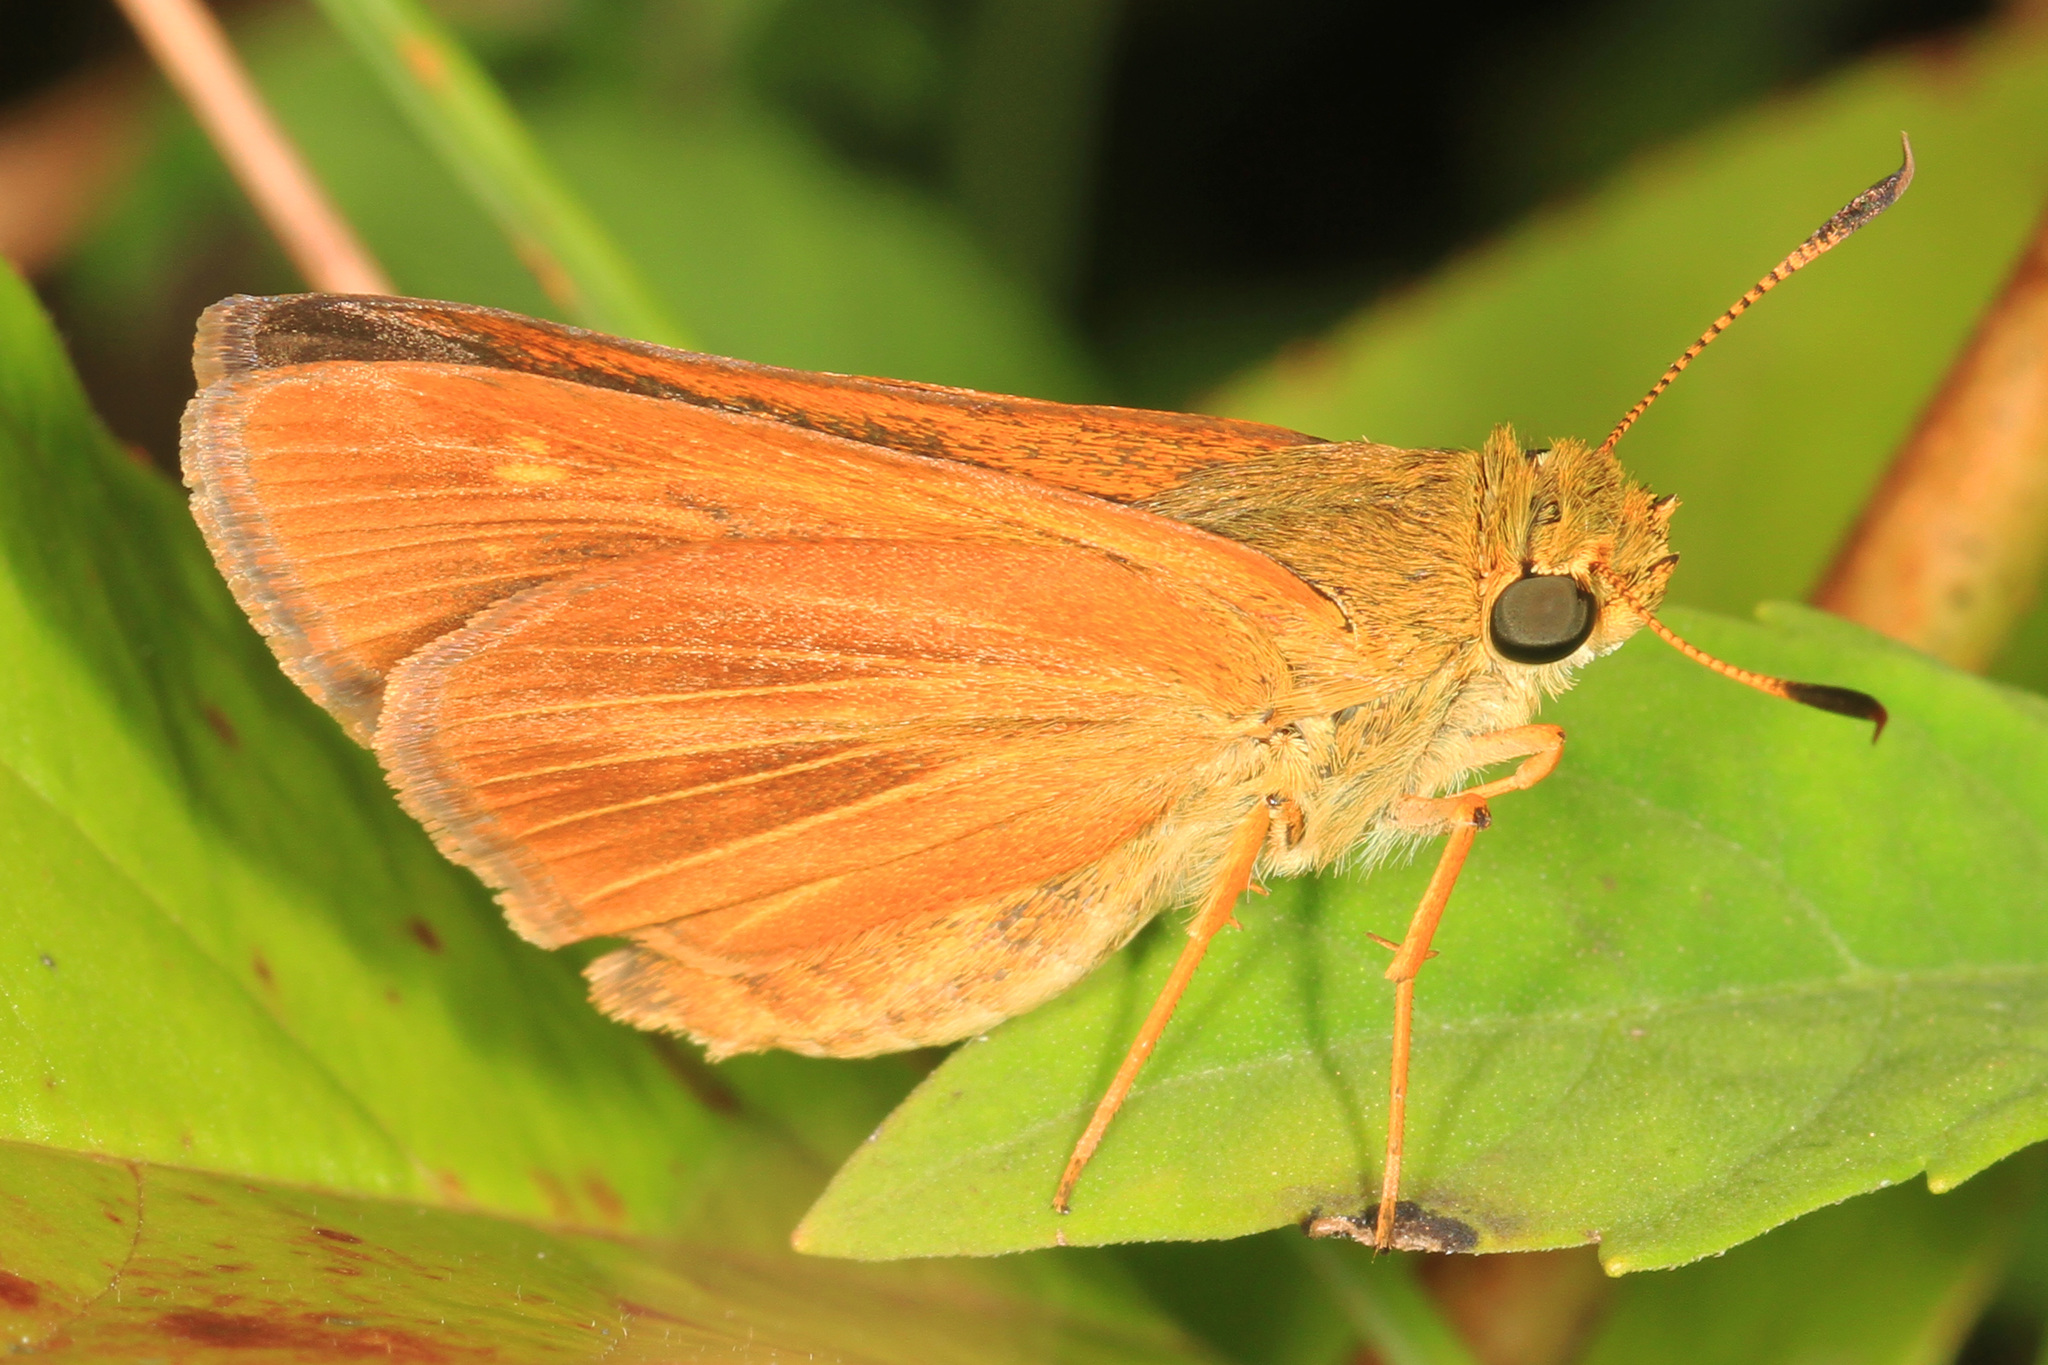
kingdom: Animalia
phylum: Arthropoda
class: Insecta
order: Lepidoptera
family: Hesperiidae
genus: Euphyes
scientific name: Euphyes dion
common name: Dion skipper
